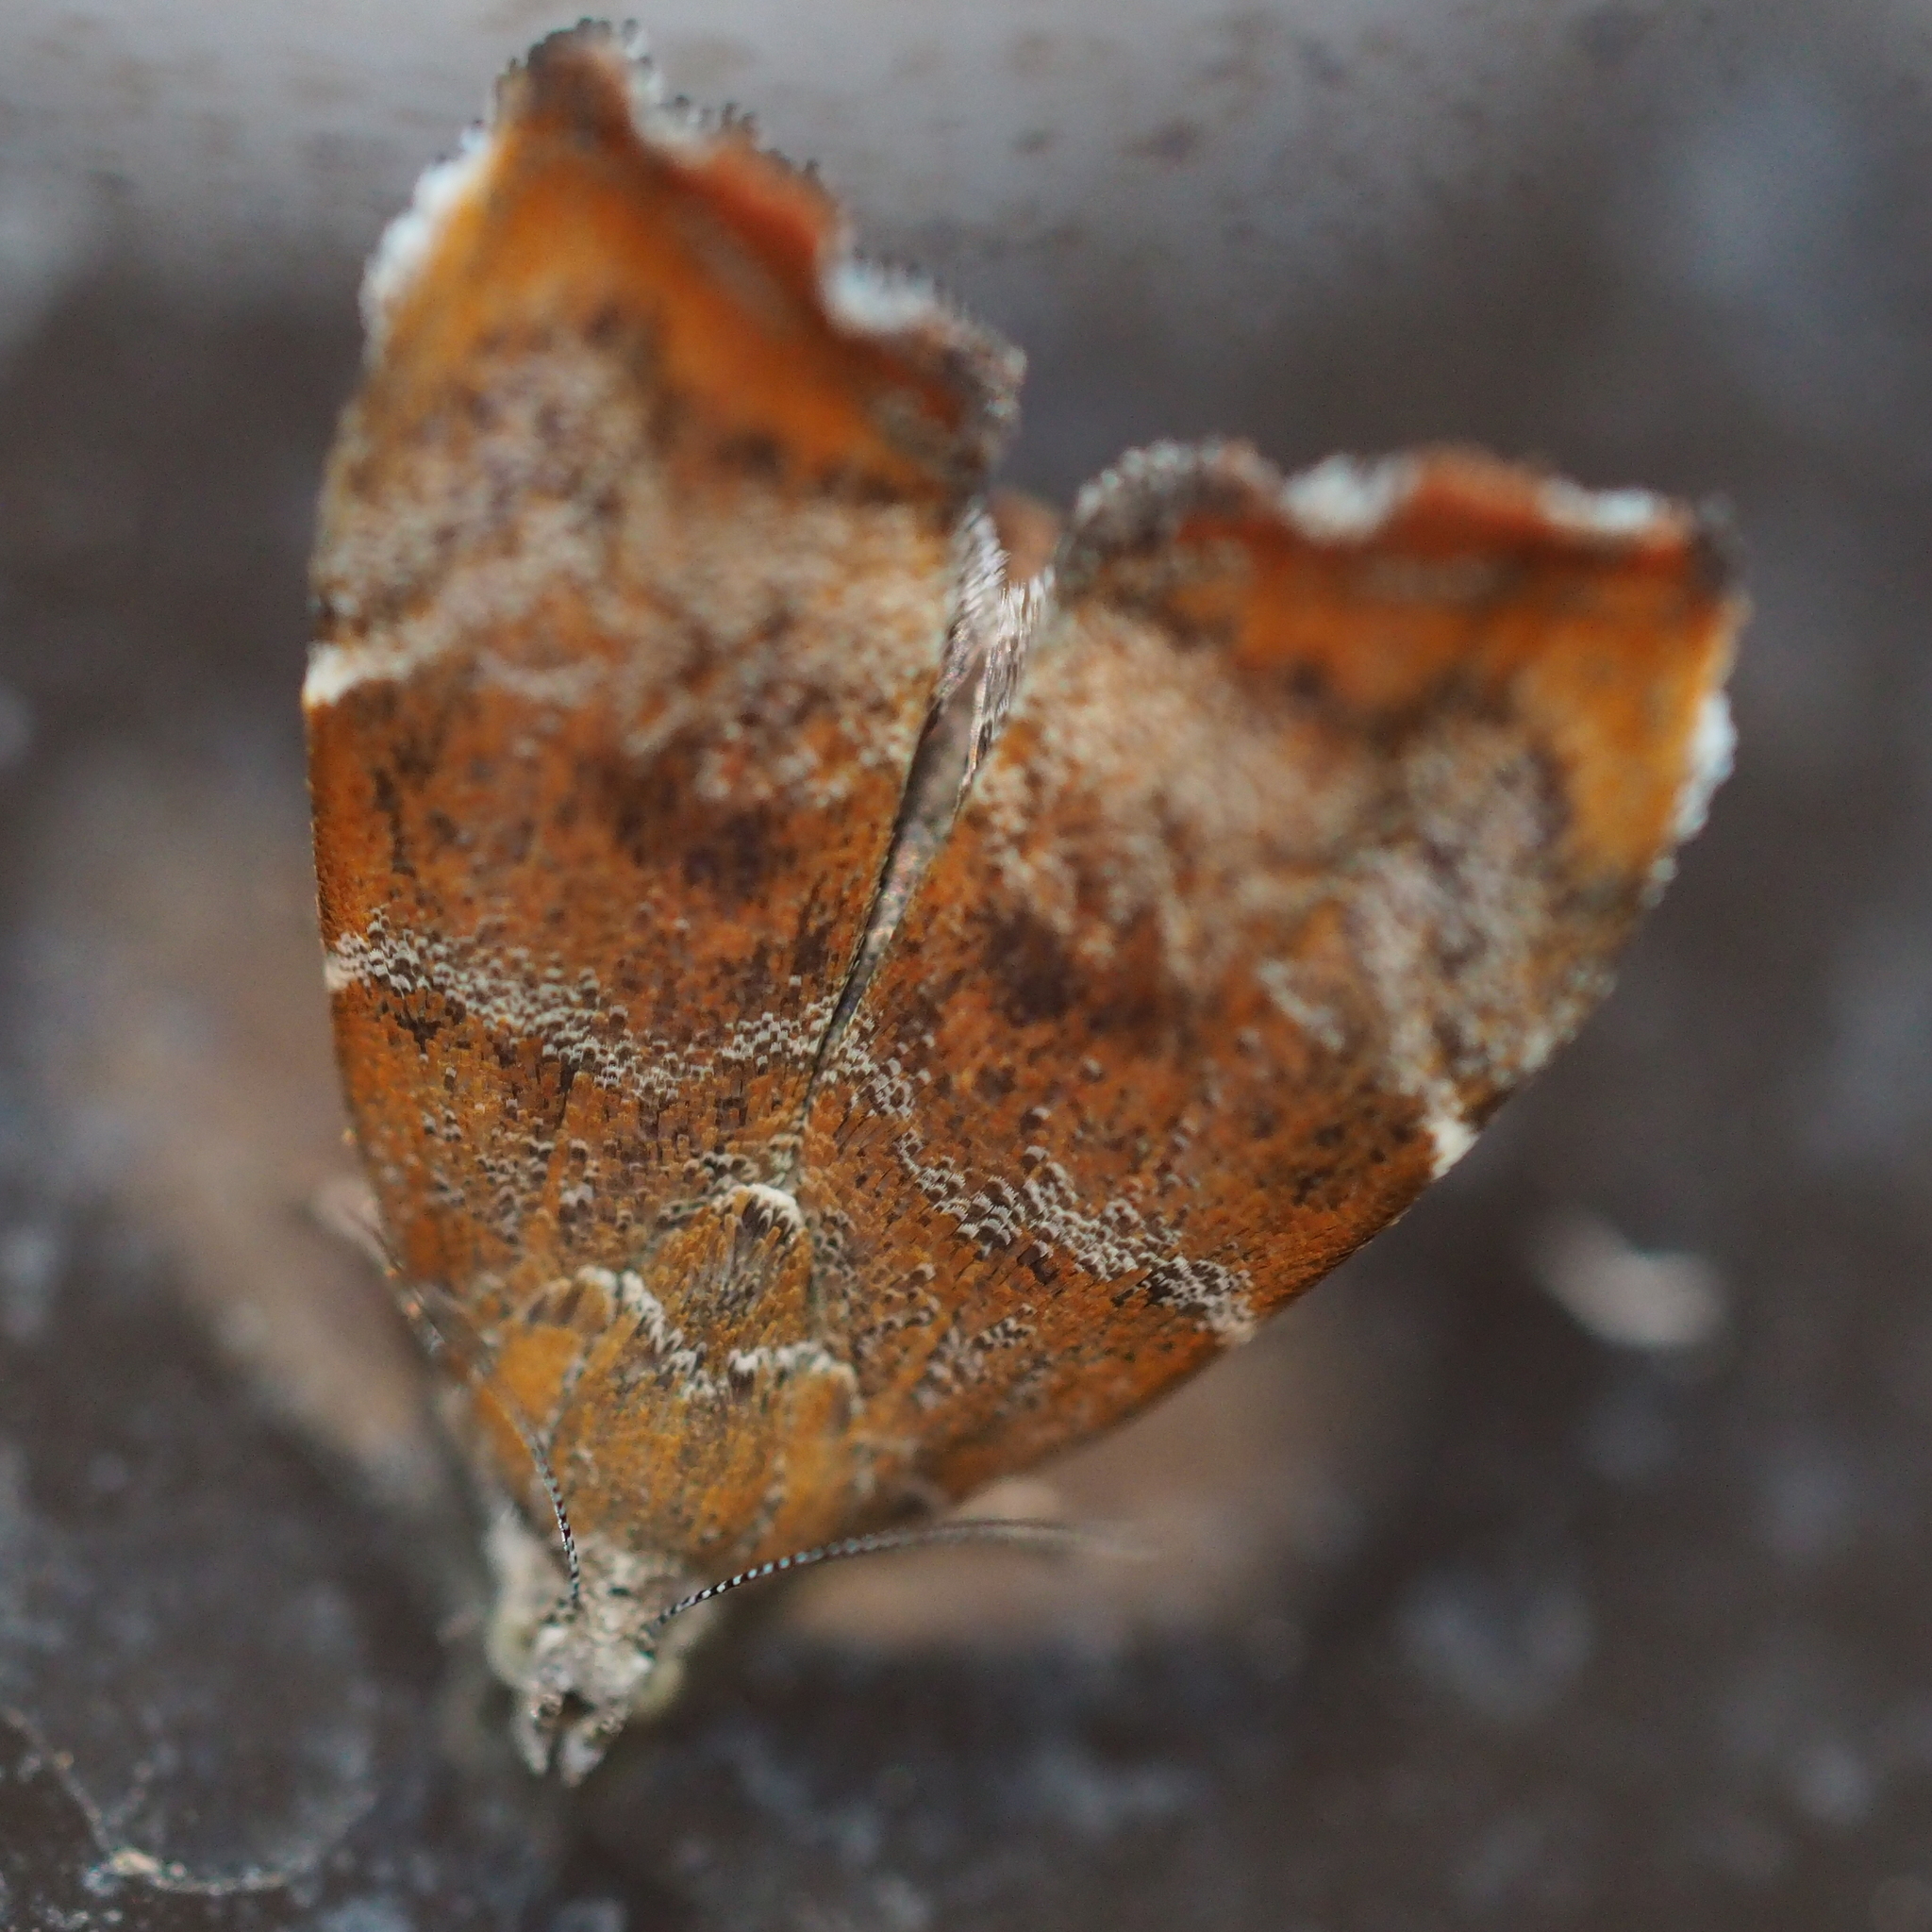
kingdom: Animalia
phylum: Arthropoda
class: Insecta
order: Lepidoptera
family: Choreutidae
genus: Anthophila
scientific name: Anthophila nemorana
